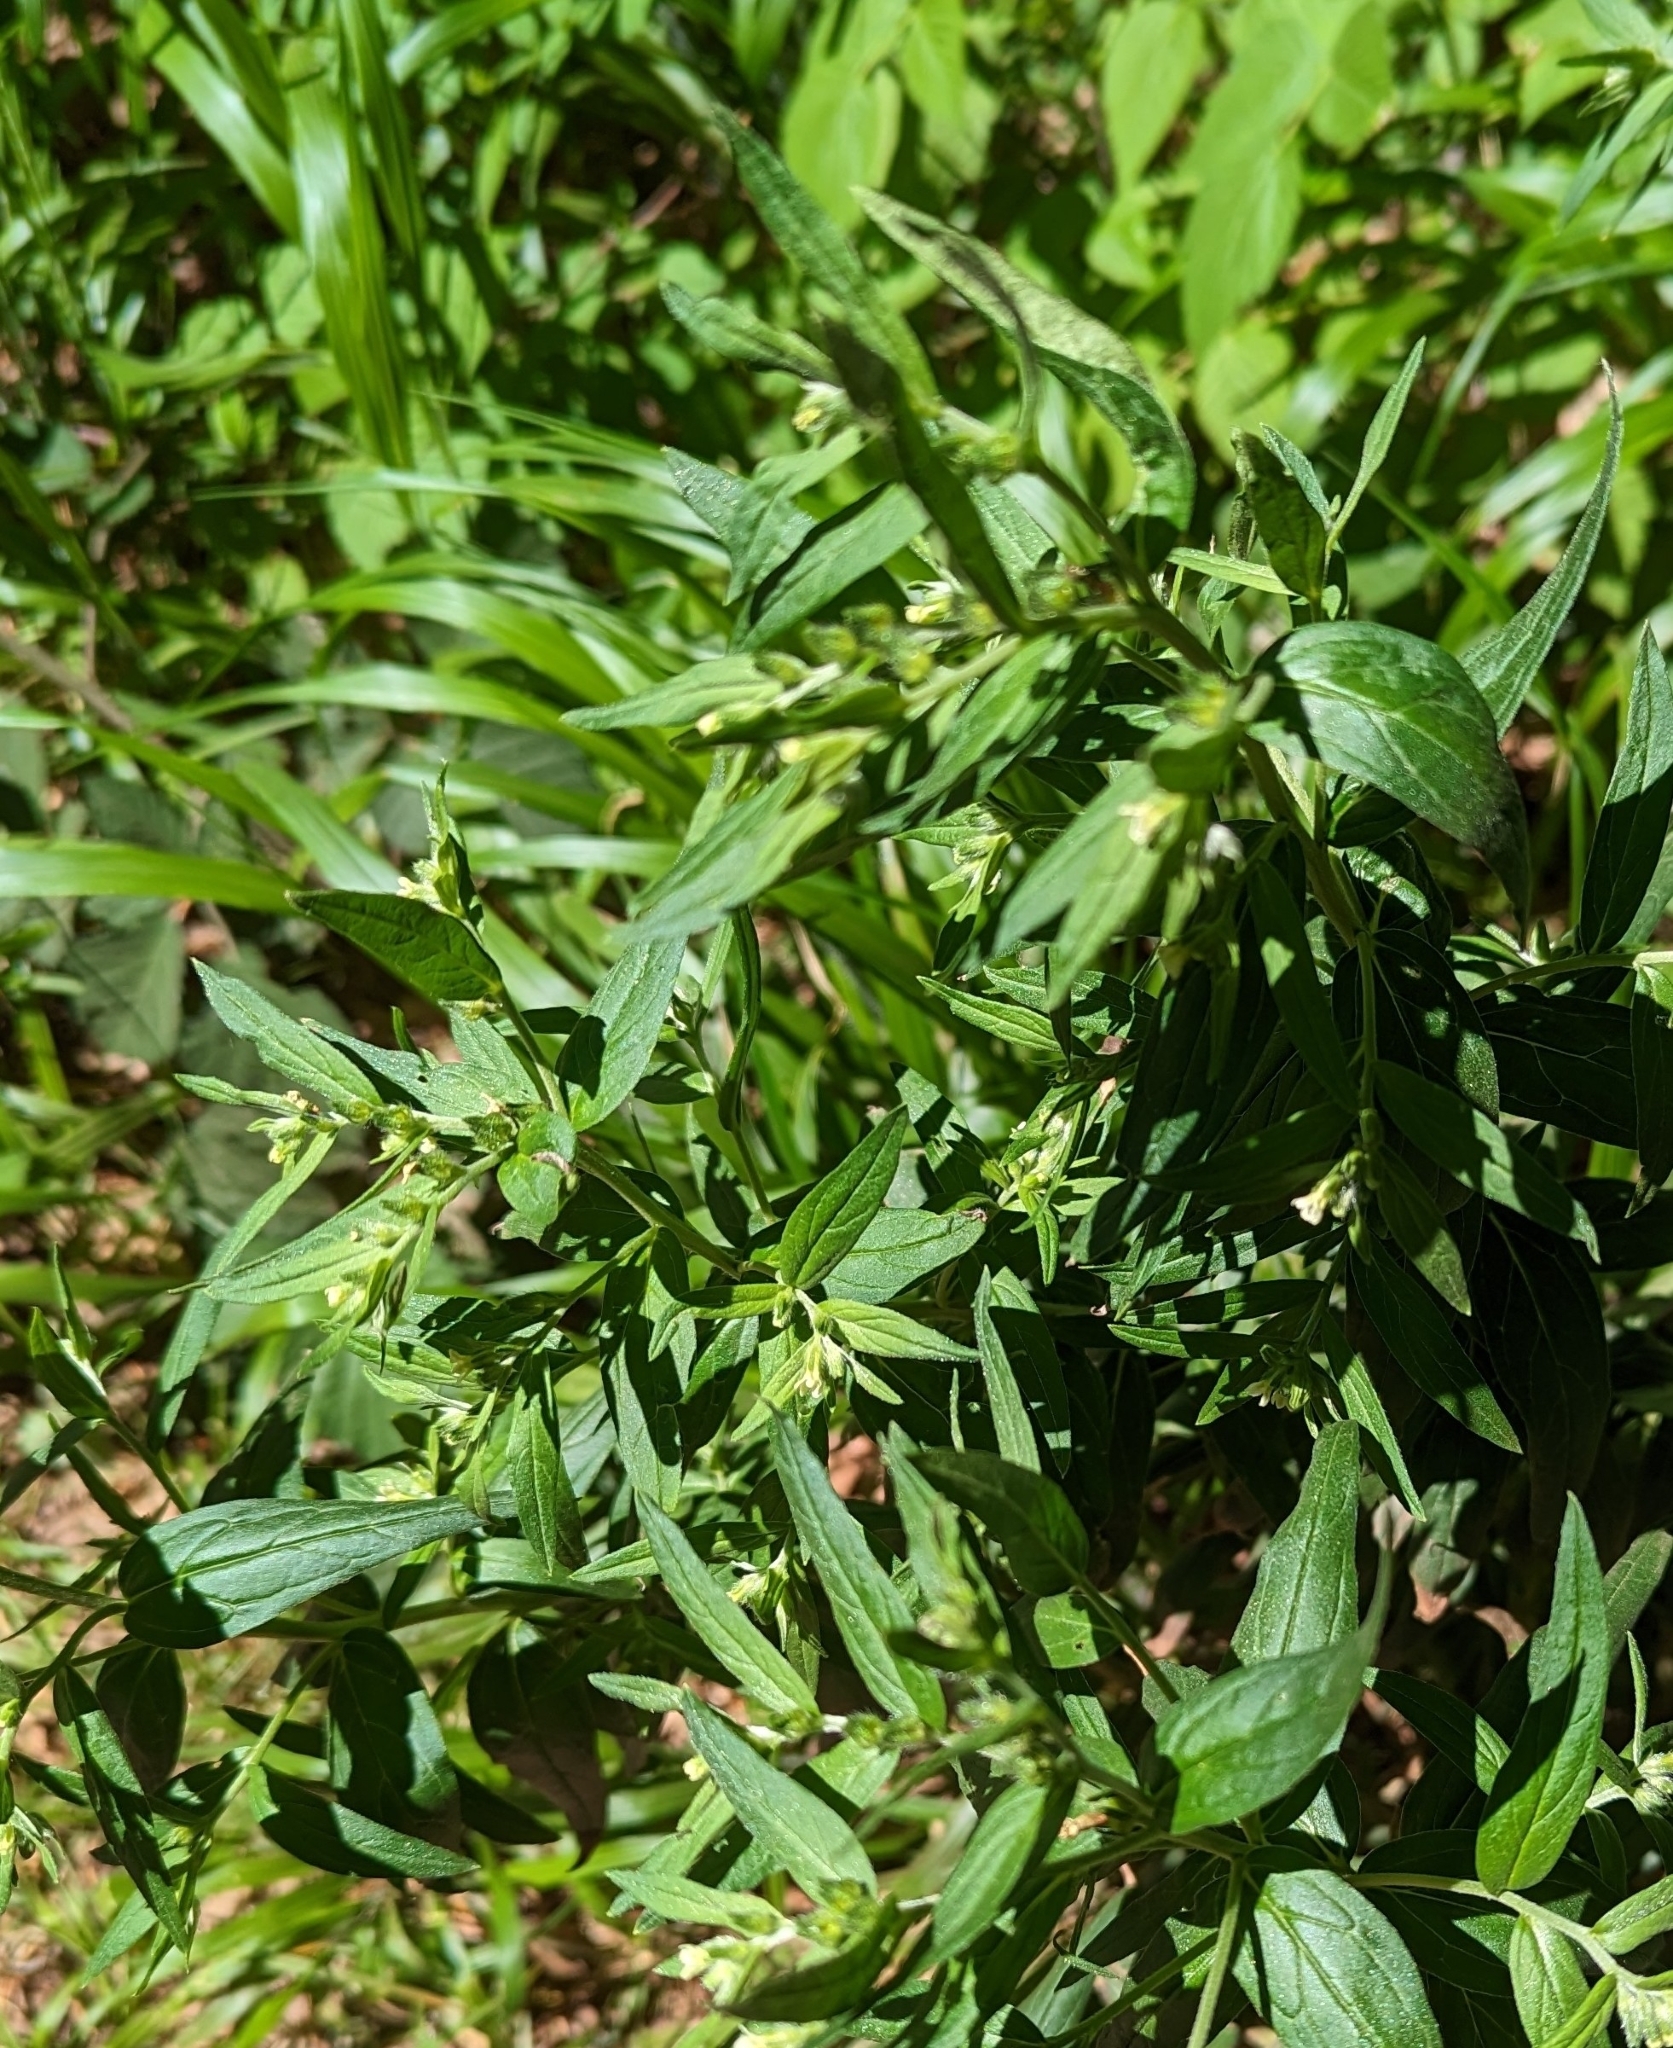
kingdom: Plantae
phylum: Tracheophyta
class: Magnoliopsida
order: Boraginales
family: Boraginaceae
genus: Lithospermum
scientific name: Lithospermum officinale
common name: Common gromwell
